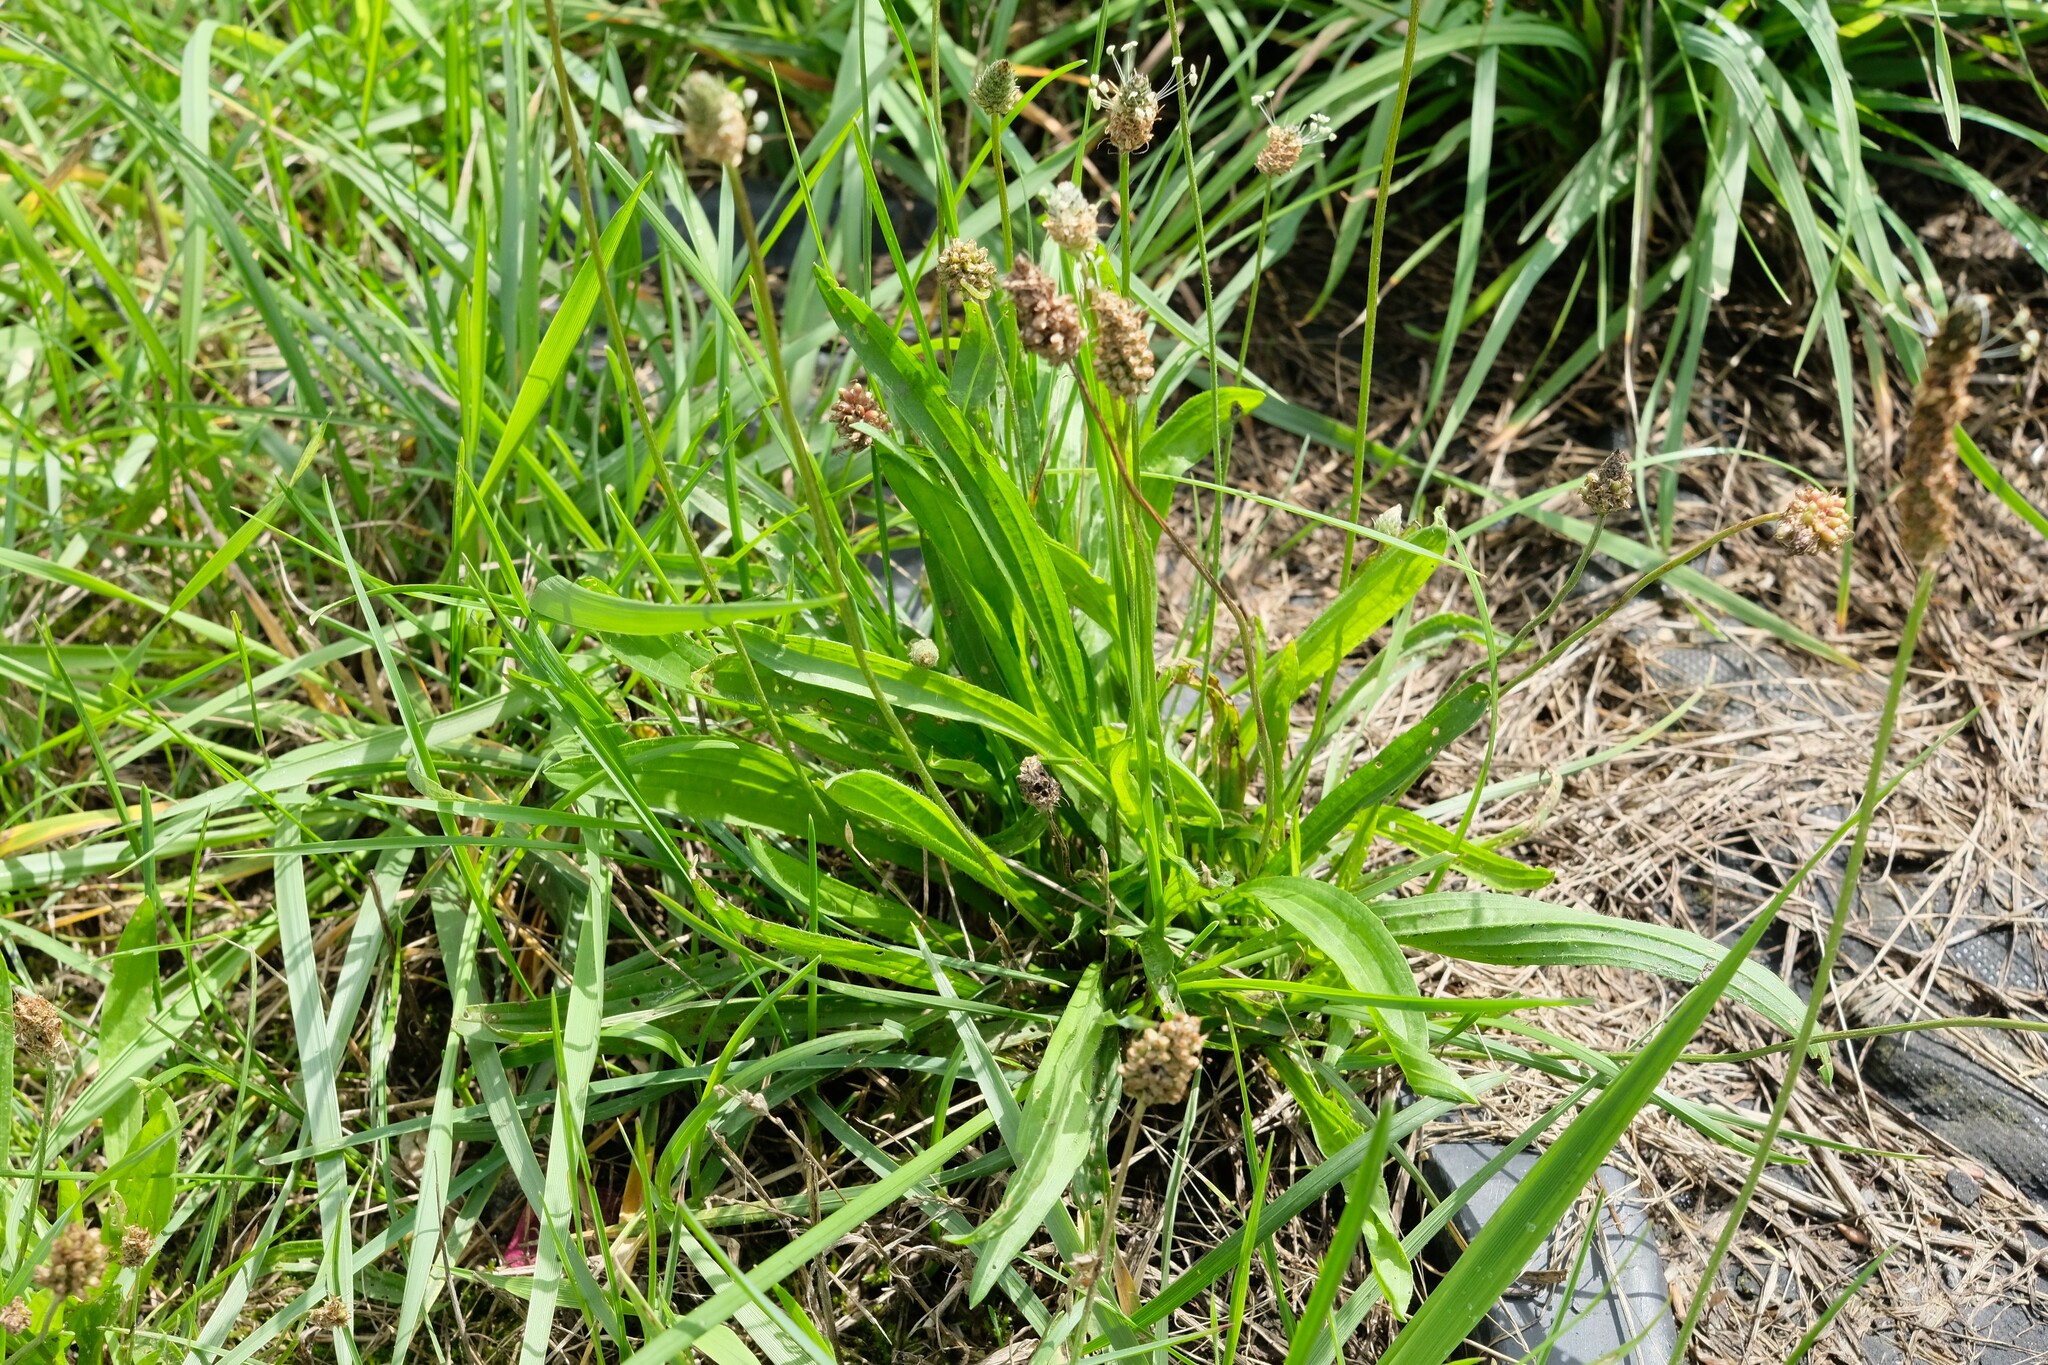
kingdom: Plantae
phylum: Tracheophyta
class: Magnoliopsida
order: Lamiales
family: Plantaginaceae
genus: Plantago
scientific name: Plantago lanceolata
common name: Ribwort plantain
